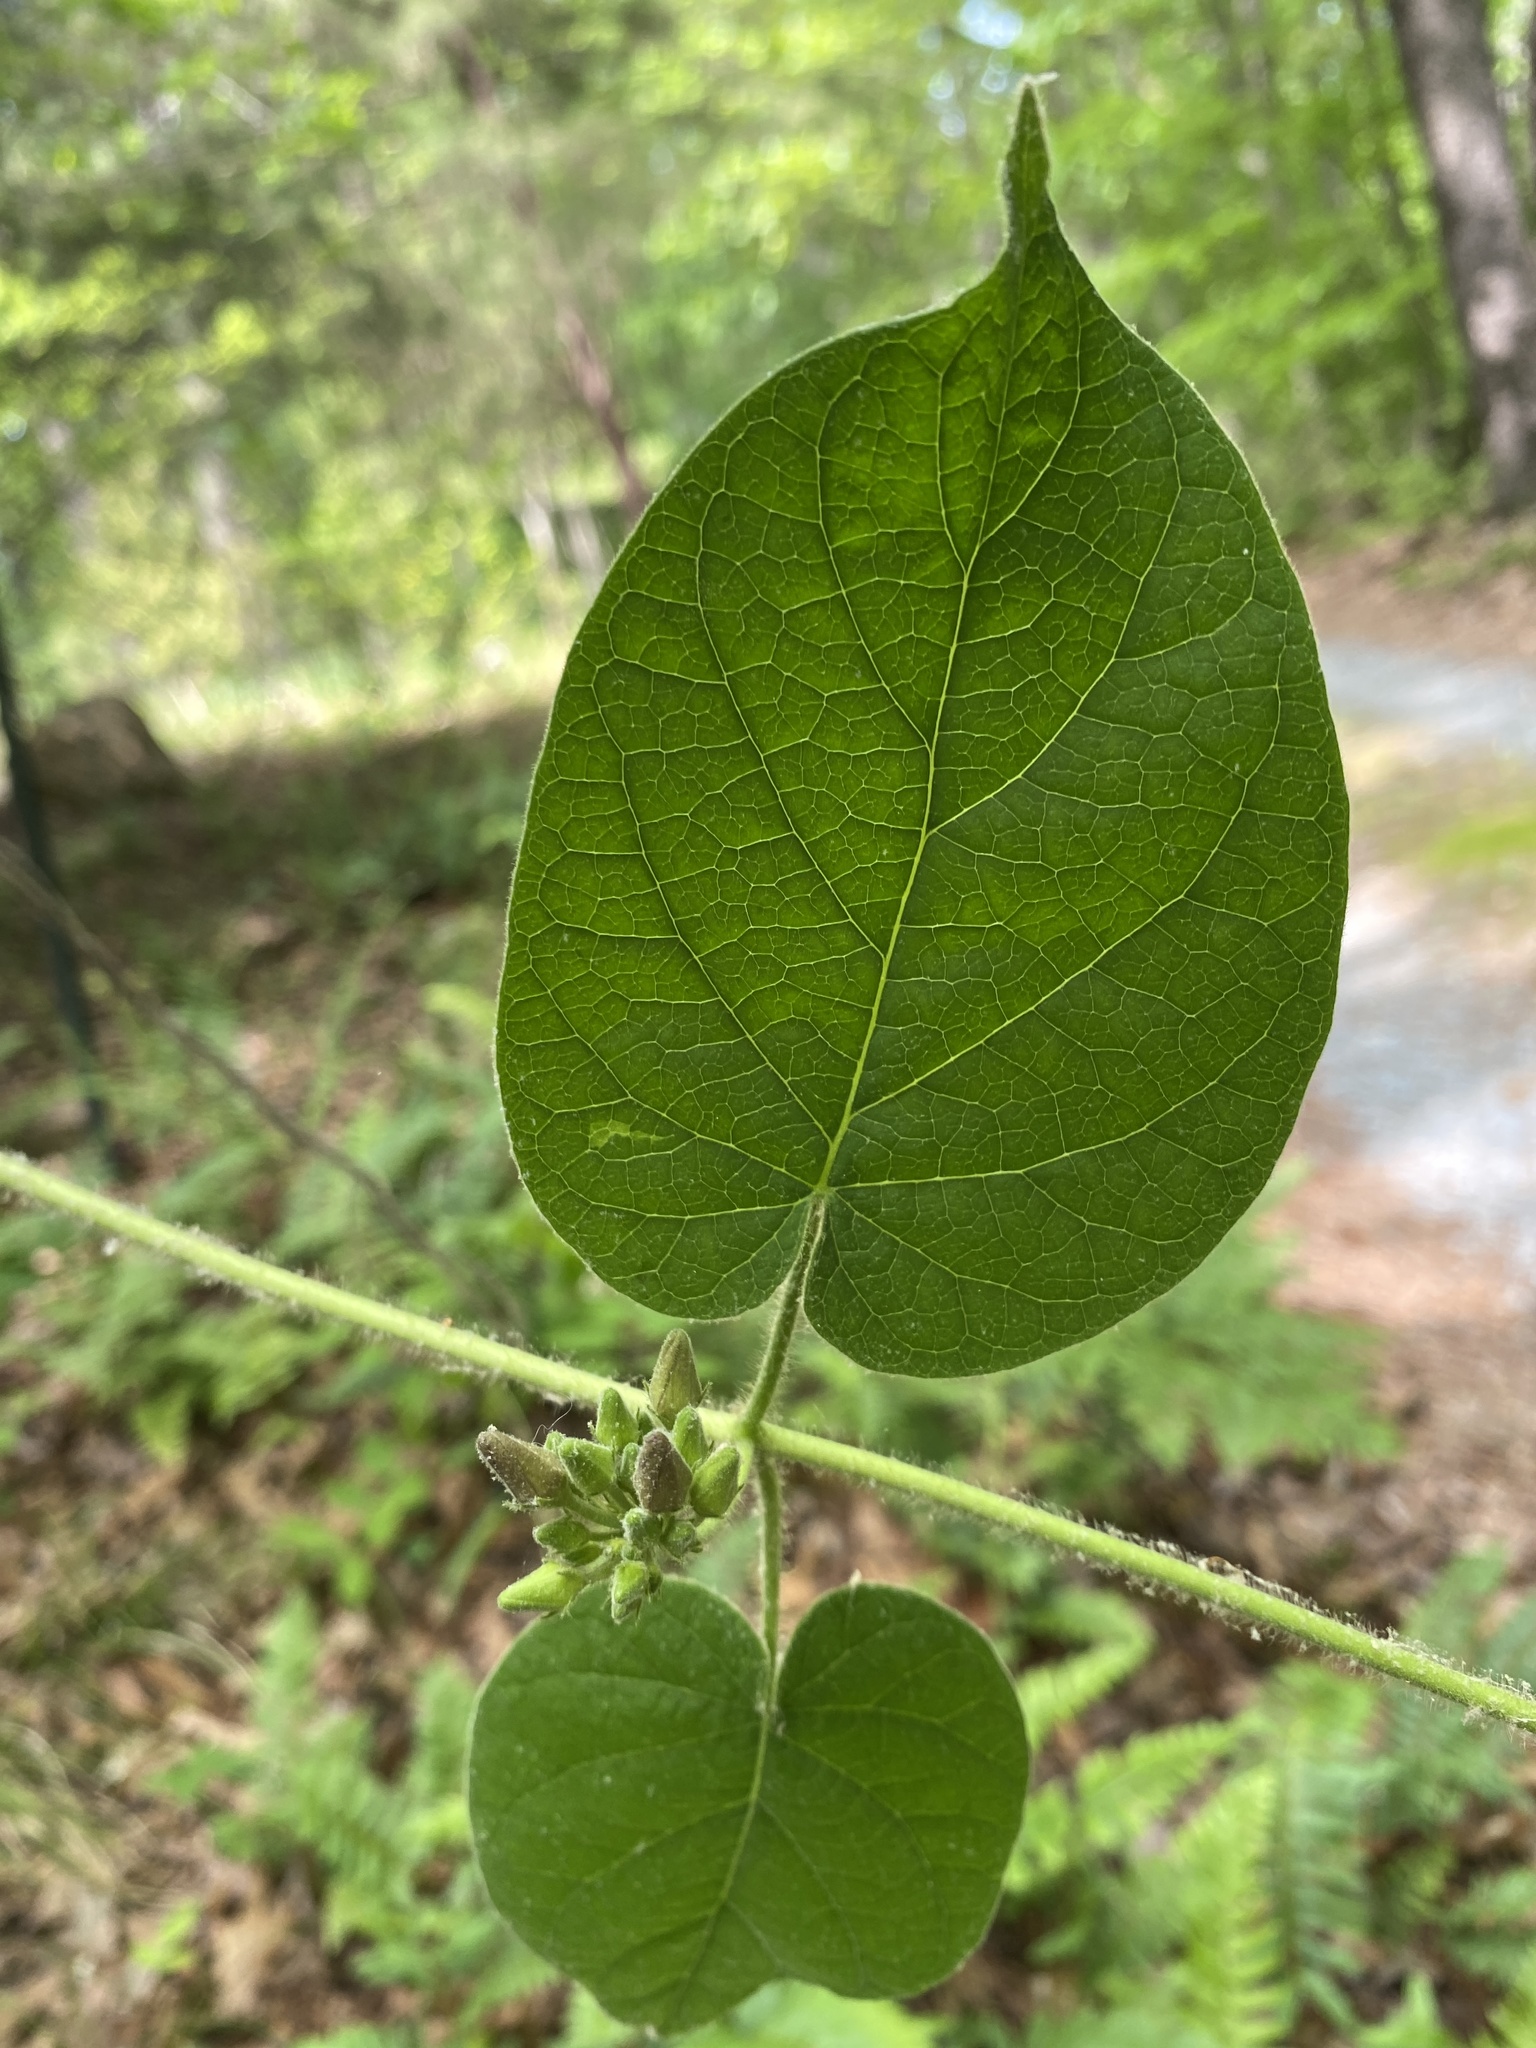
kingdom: Plantae
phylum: Tracheophyta
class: Magnoliopsida
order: Gentianales
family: Apocynaceae
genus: Matelea
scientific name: Matelea carolinensis
